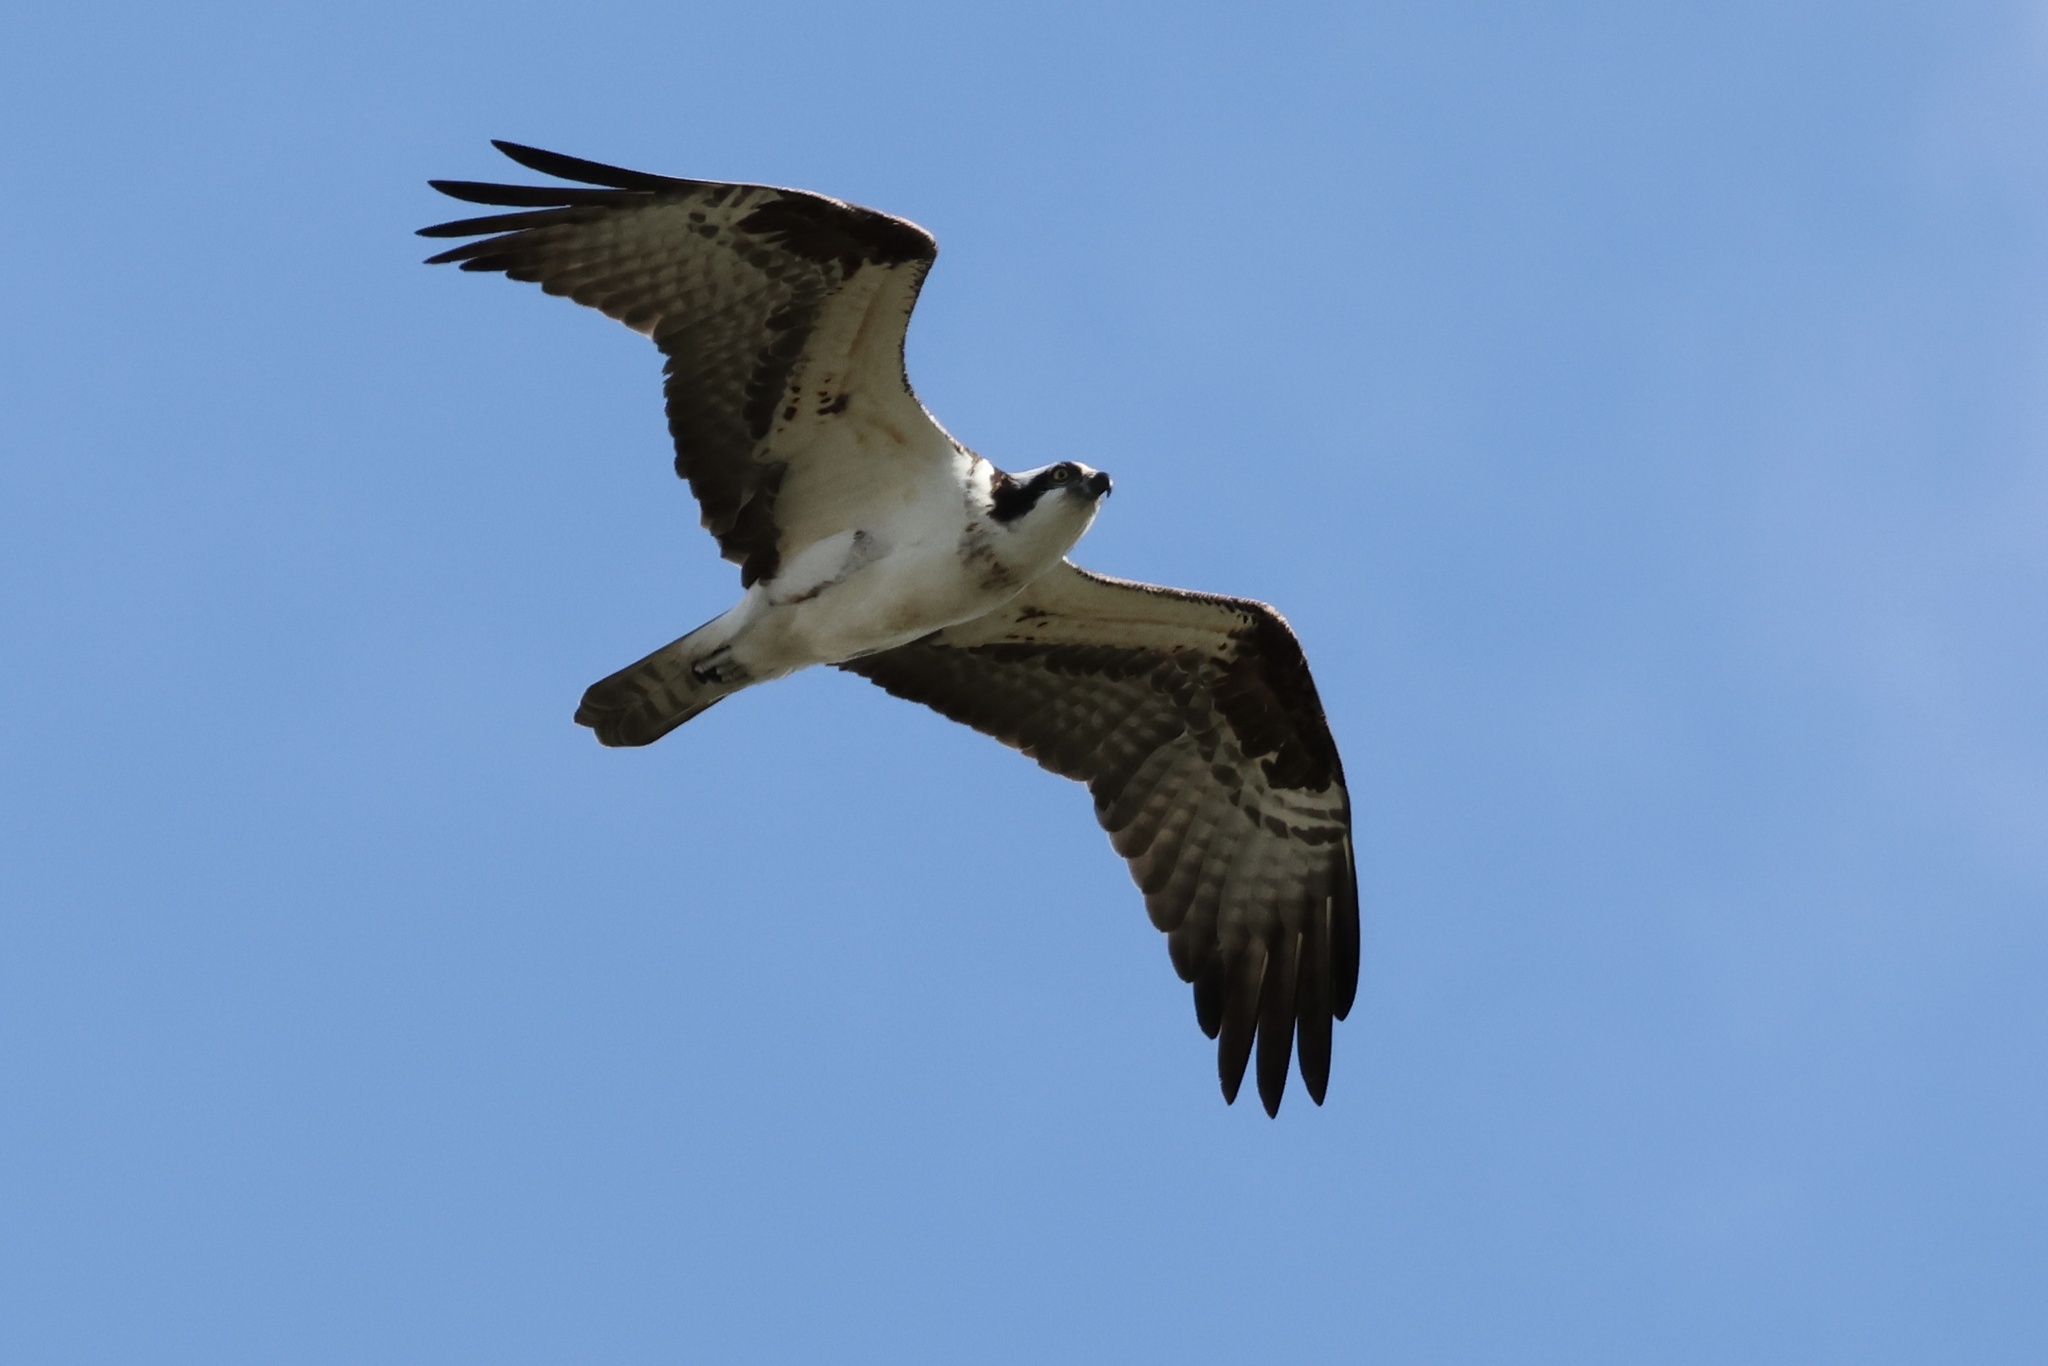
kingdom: Animalia
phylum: Chordata
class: Aves
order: Accipitriformes
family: Pandionidae
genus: Pandion
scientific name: Pandion haliaetus
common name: Osprey
